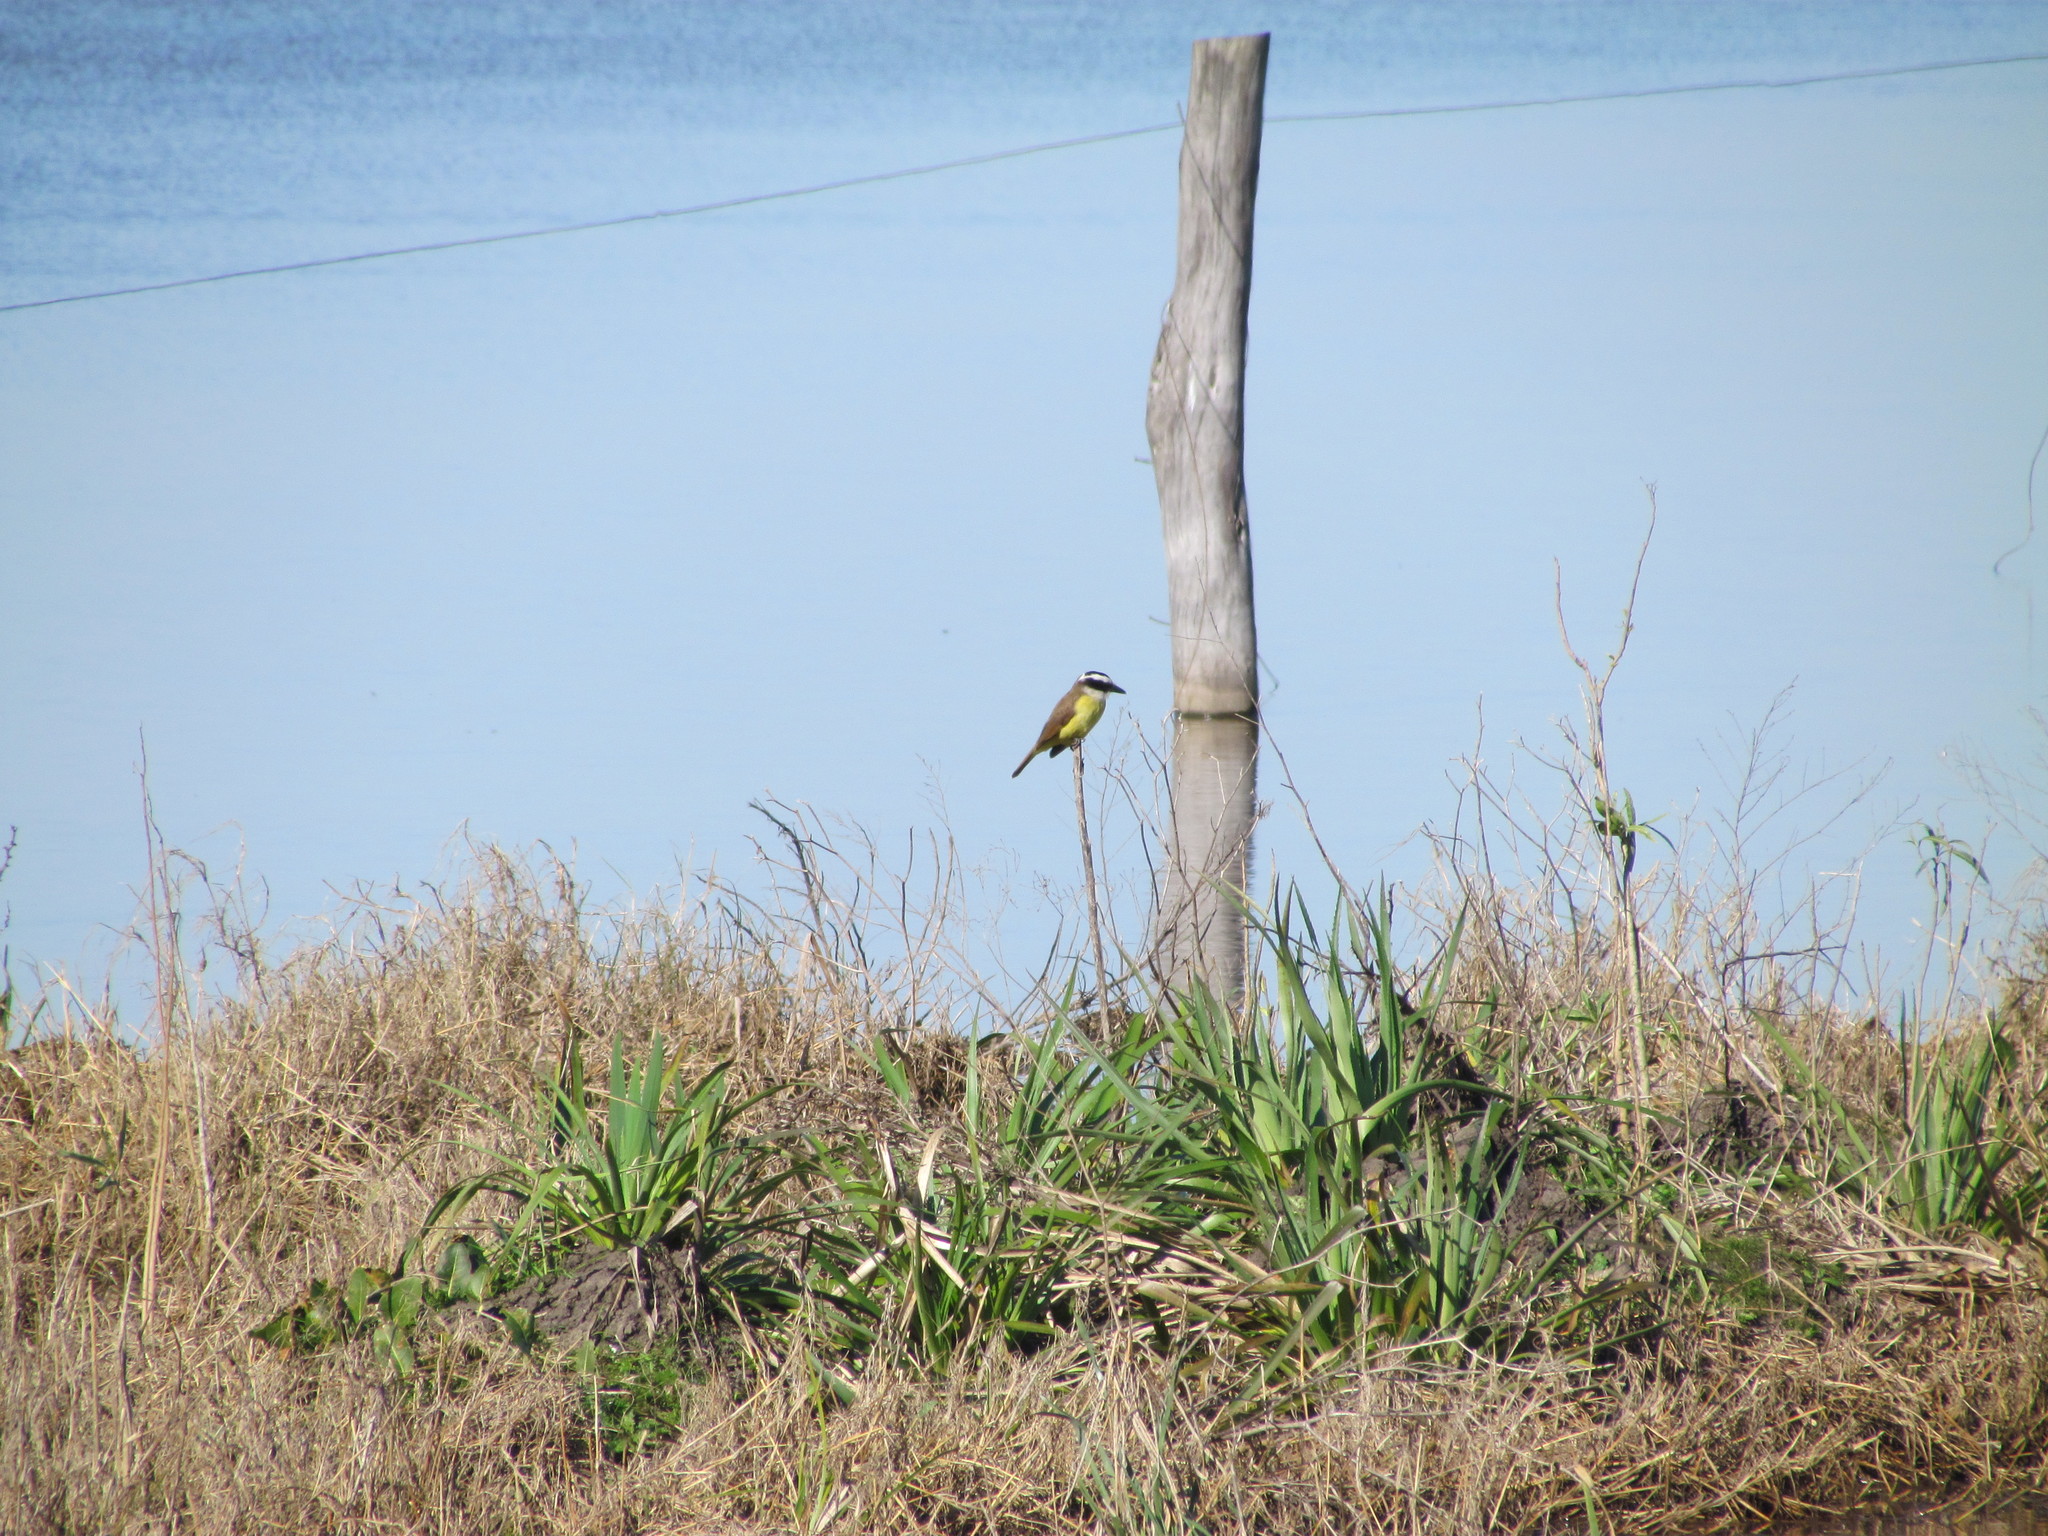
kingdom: Animalia
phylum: Chordata
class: Aves
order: Passeriformes
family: Tyrannidae
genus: Pitangus
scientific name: Pitangus sulphuratus
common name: Great kiskadee
